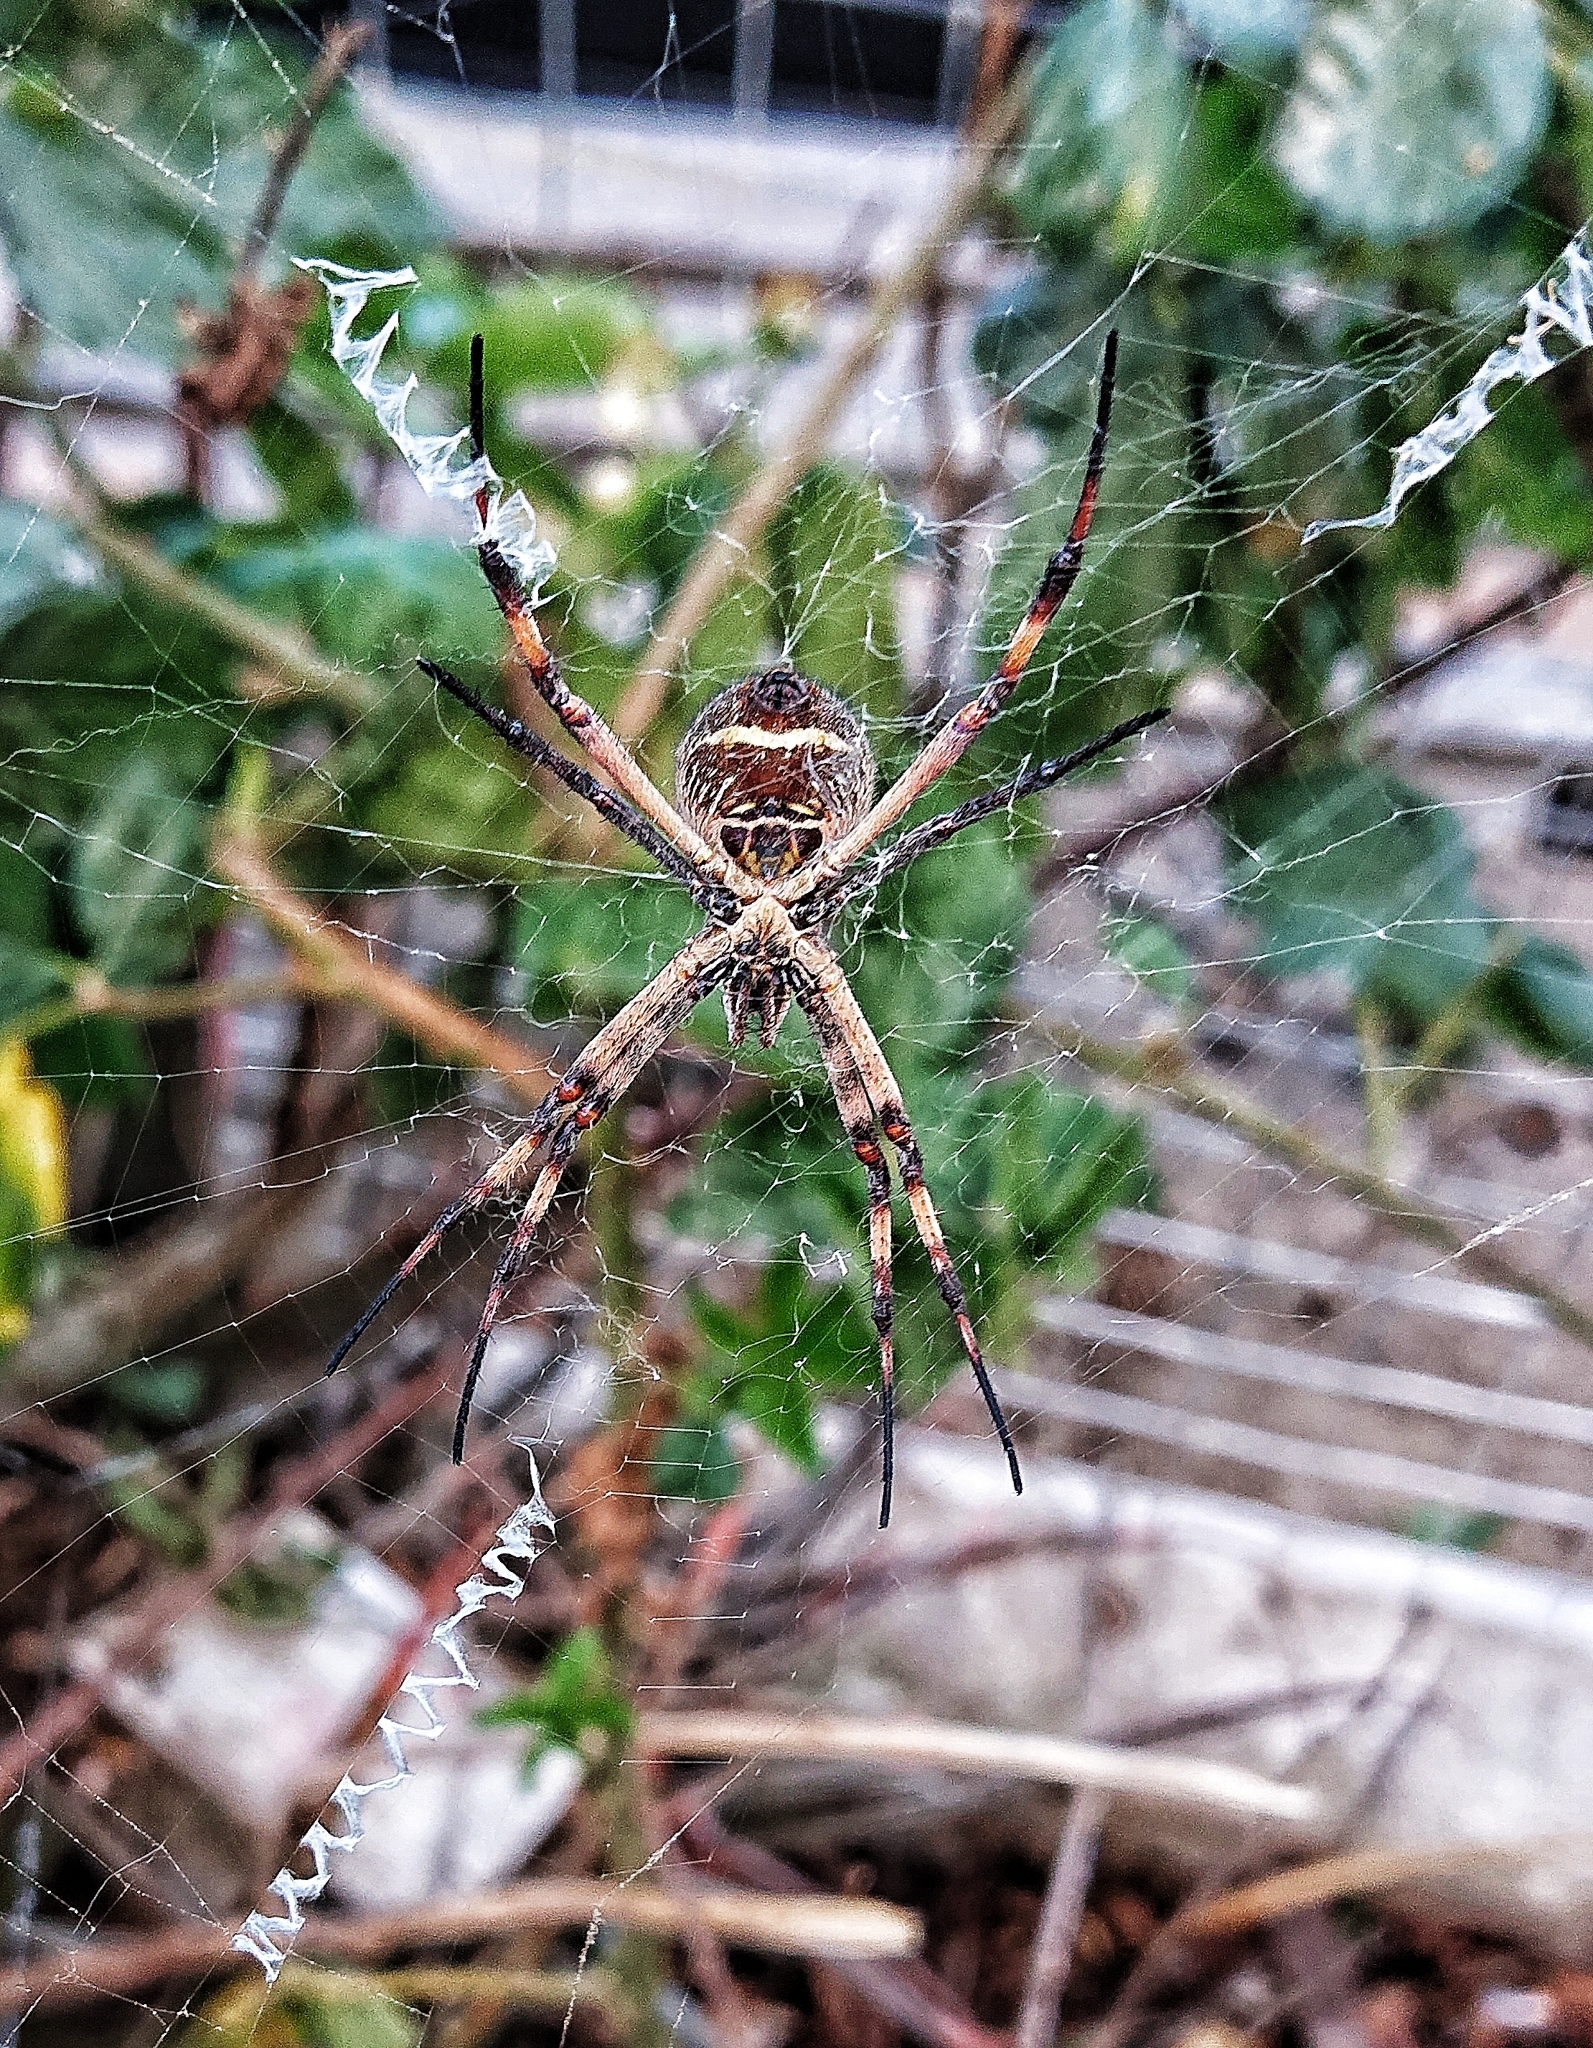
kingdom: Animalia
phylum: Arthropoda
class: Arachnida
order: Araneae
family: Araneidae
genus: Argiope
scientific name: Argiope argentata
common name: Orb weavers
